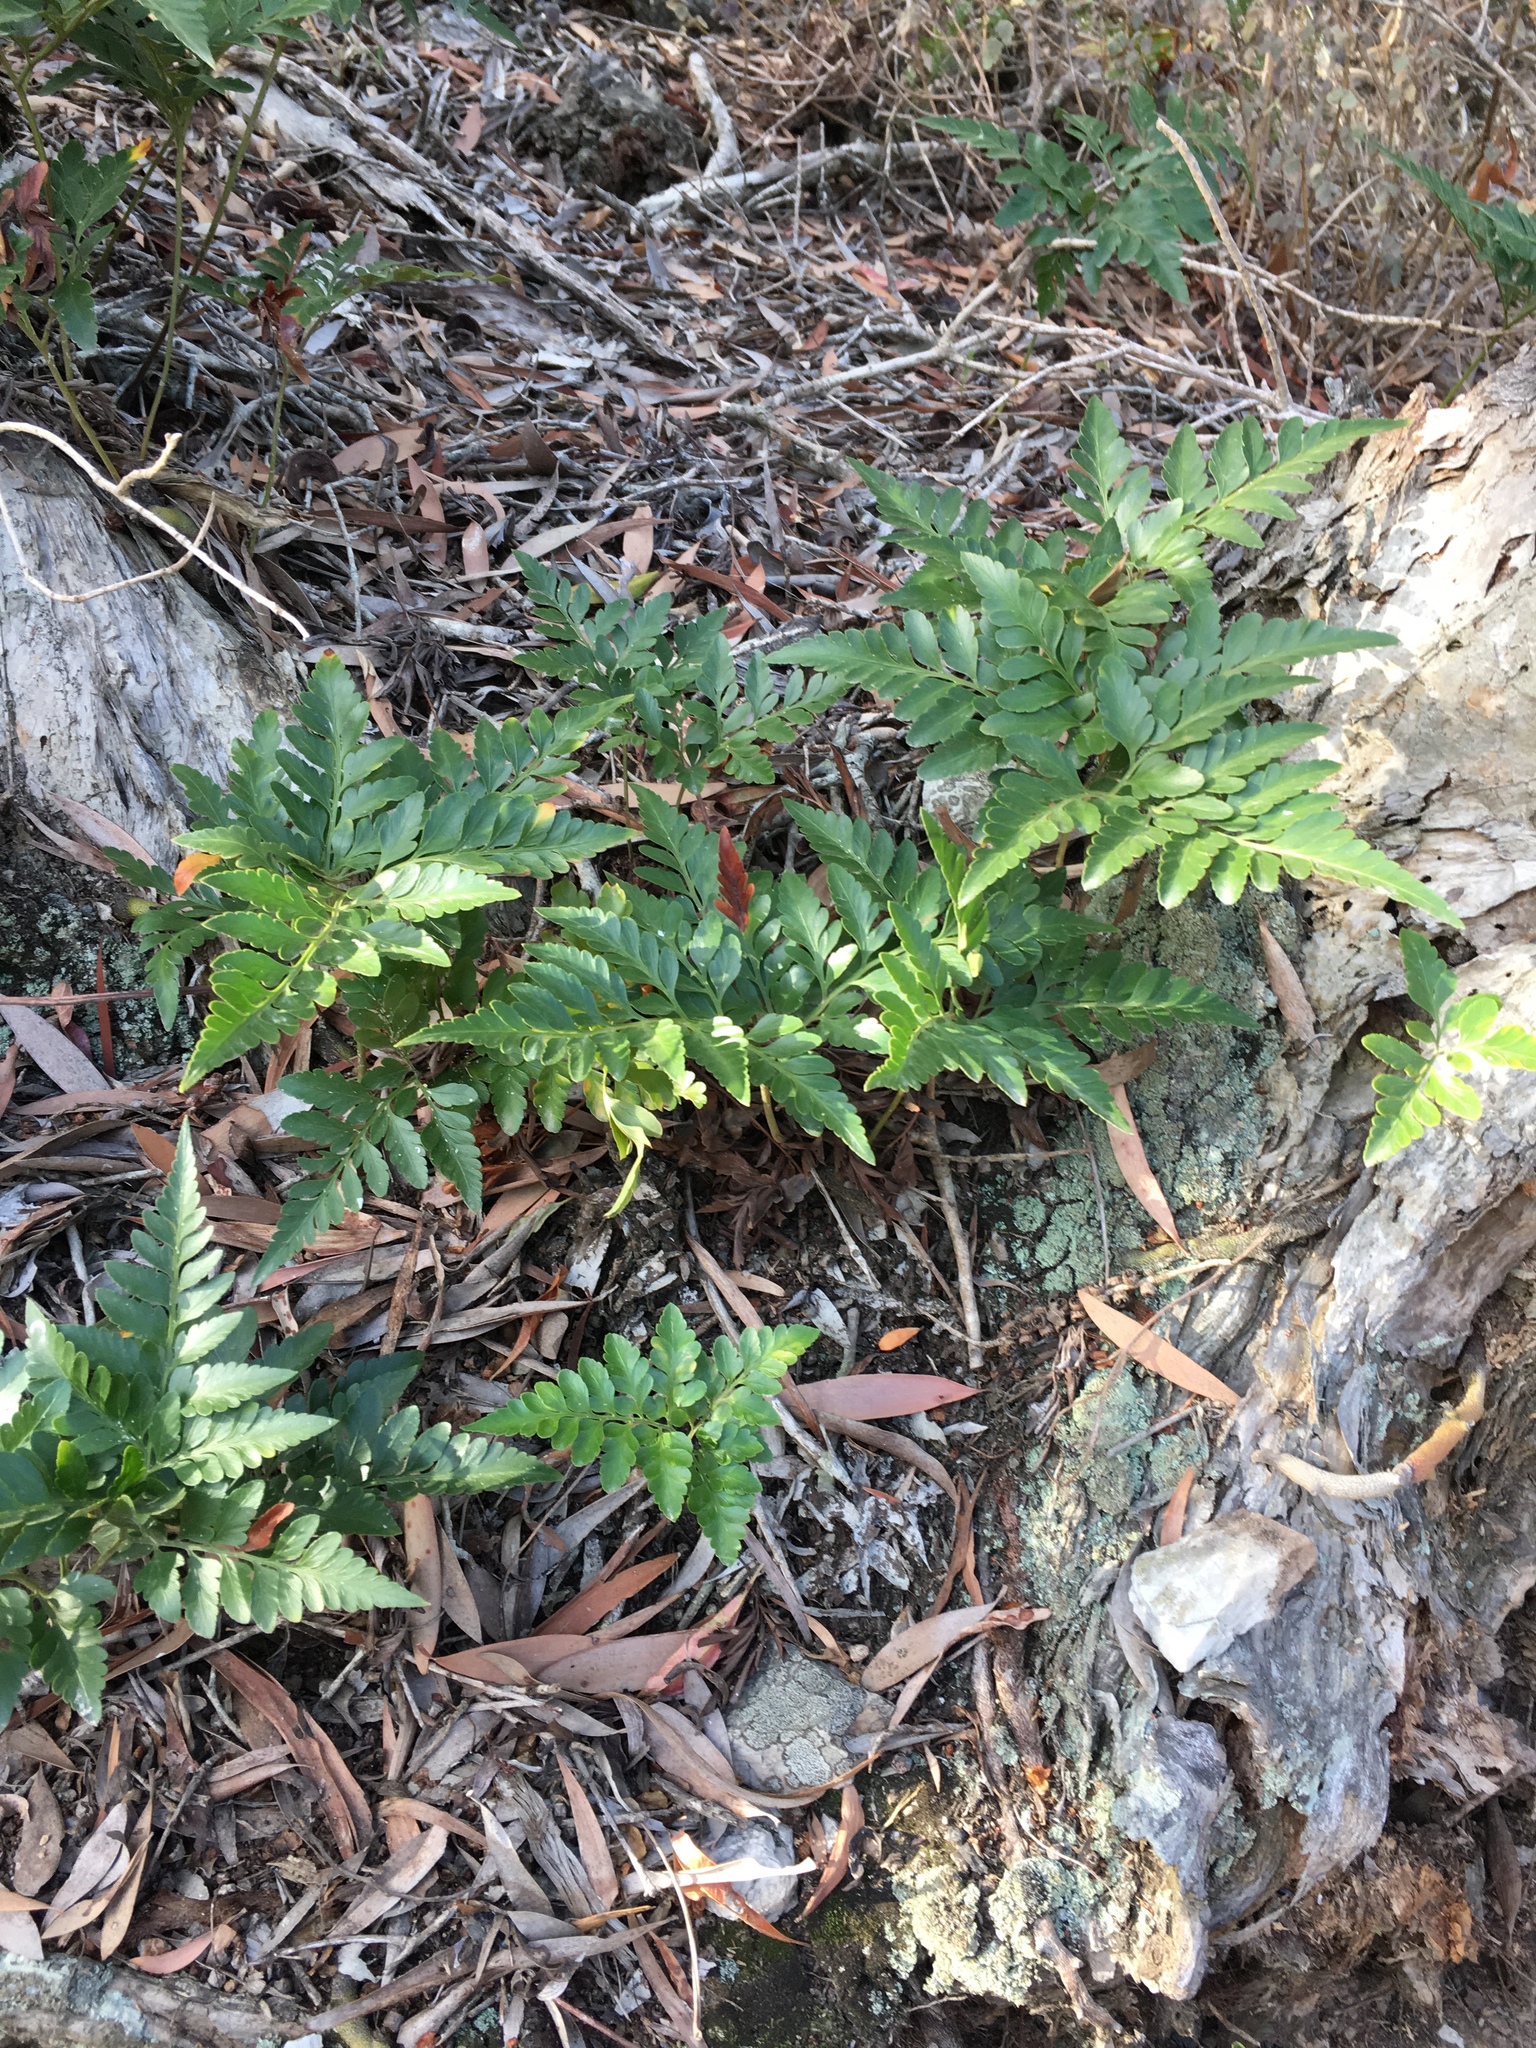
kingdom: Plantae
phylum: Tracheophyta
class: Polypodiopsida
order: Polypodiales
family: Davalliaceae
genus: Davallia
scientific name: Davallia solida
